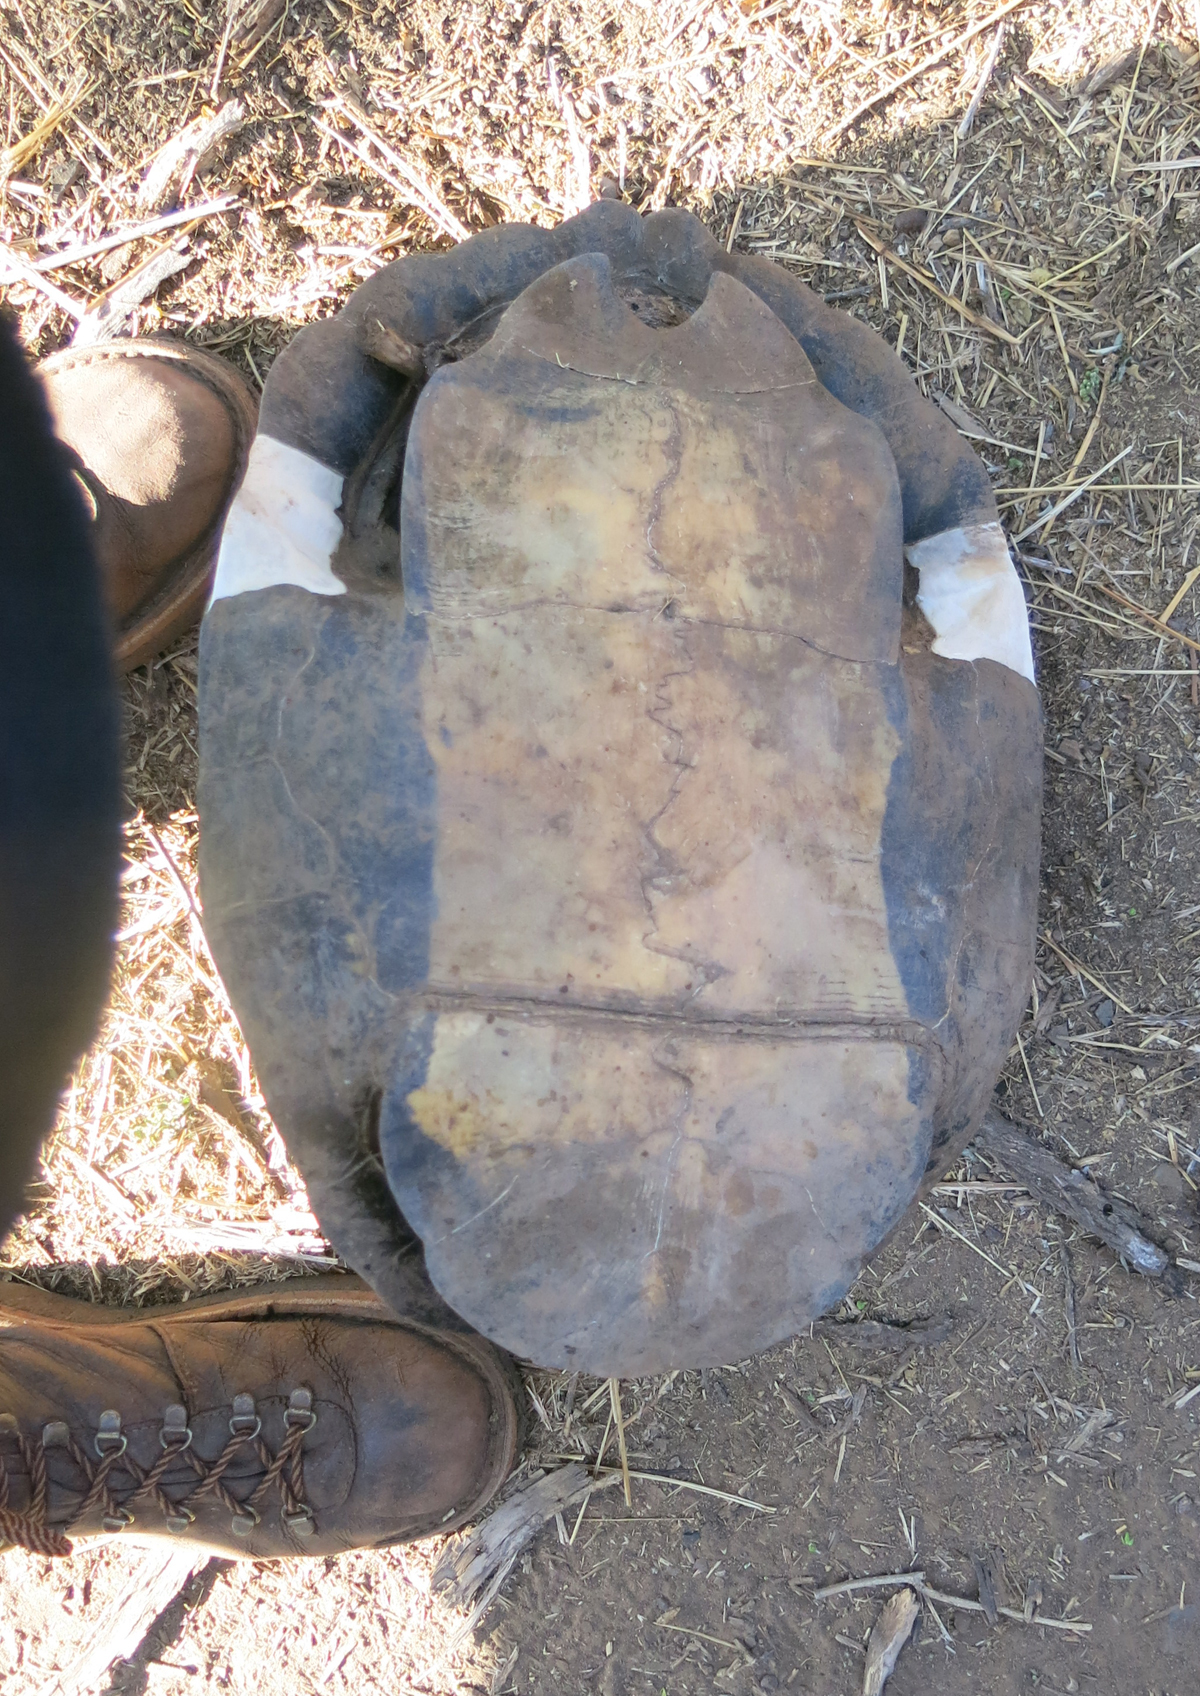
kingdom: Animalia
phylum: Chordata
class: Testudines
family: Pelomedusidae
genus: Pelusios
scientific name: Pelusios sinuatus
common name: Serrated hinged terrapin
